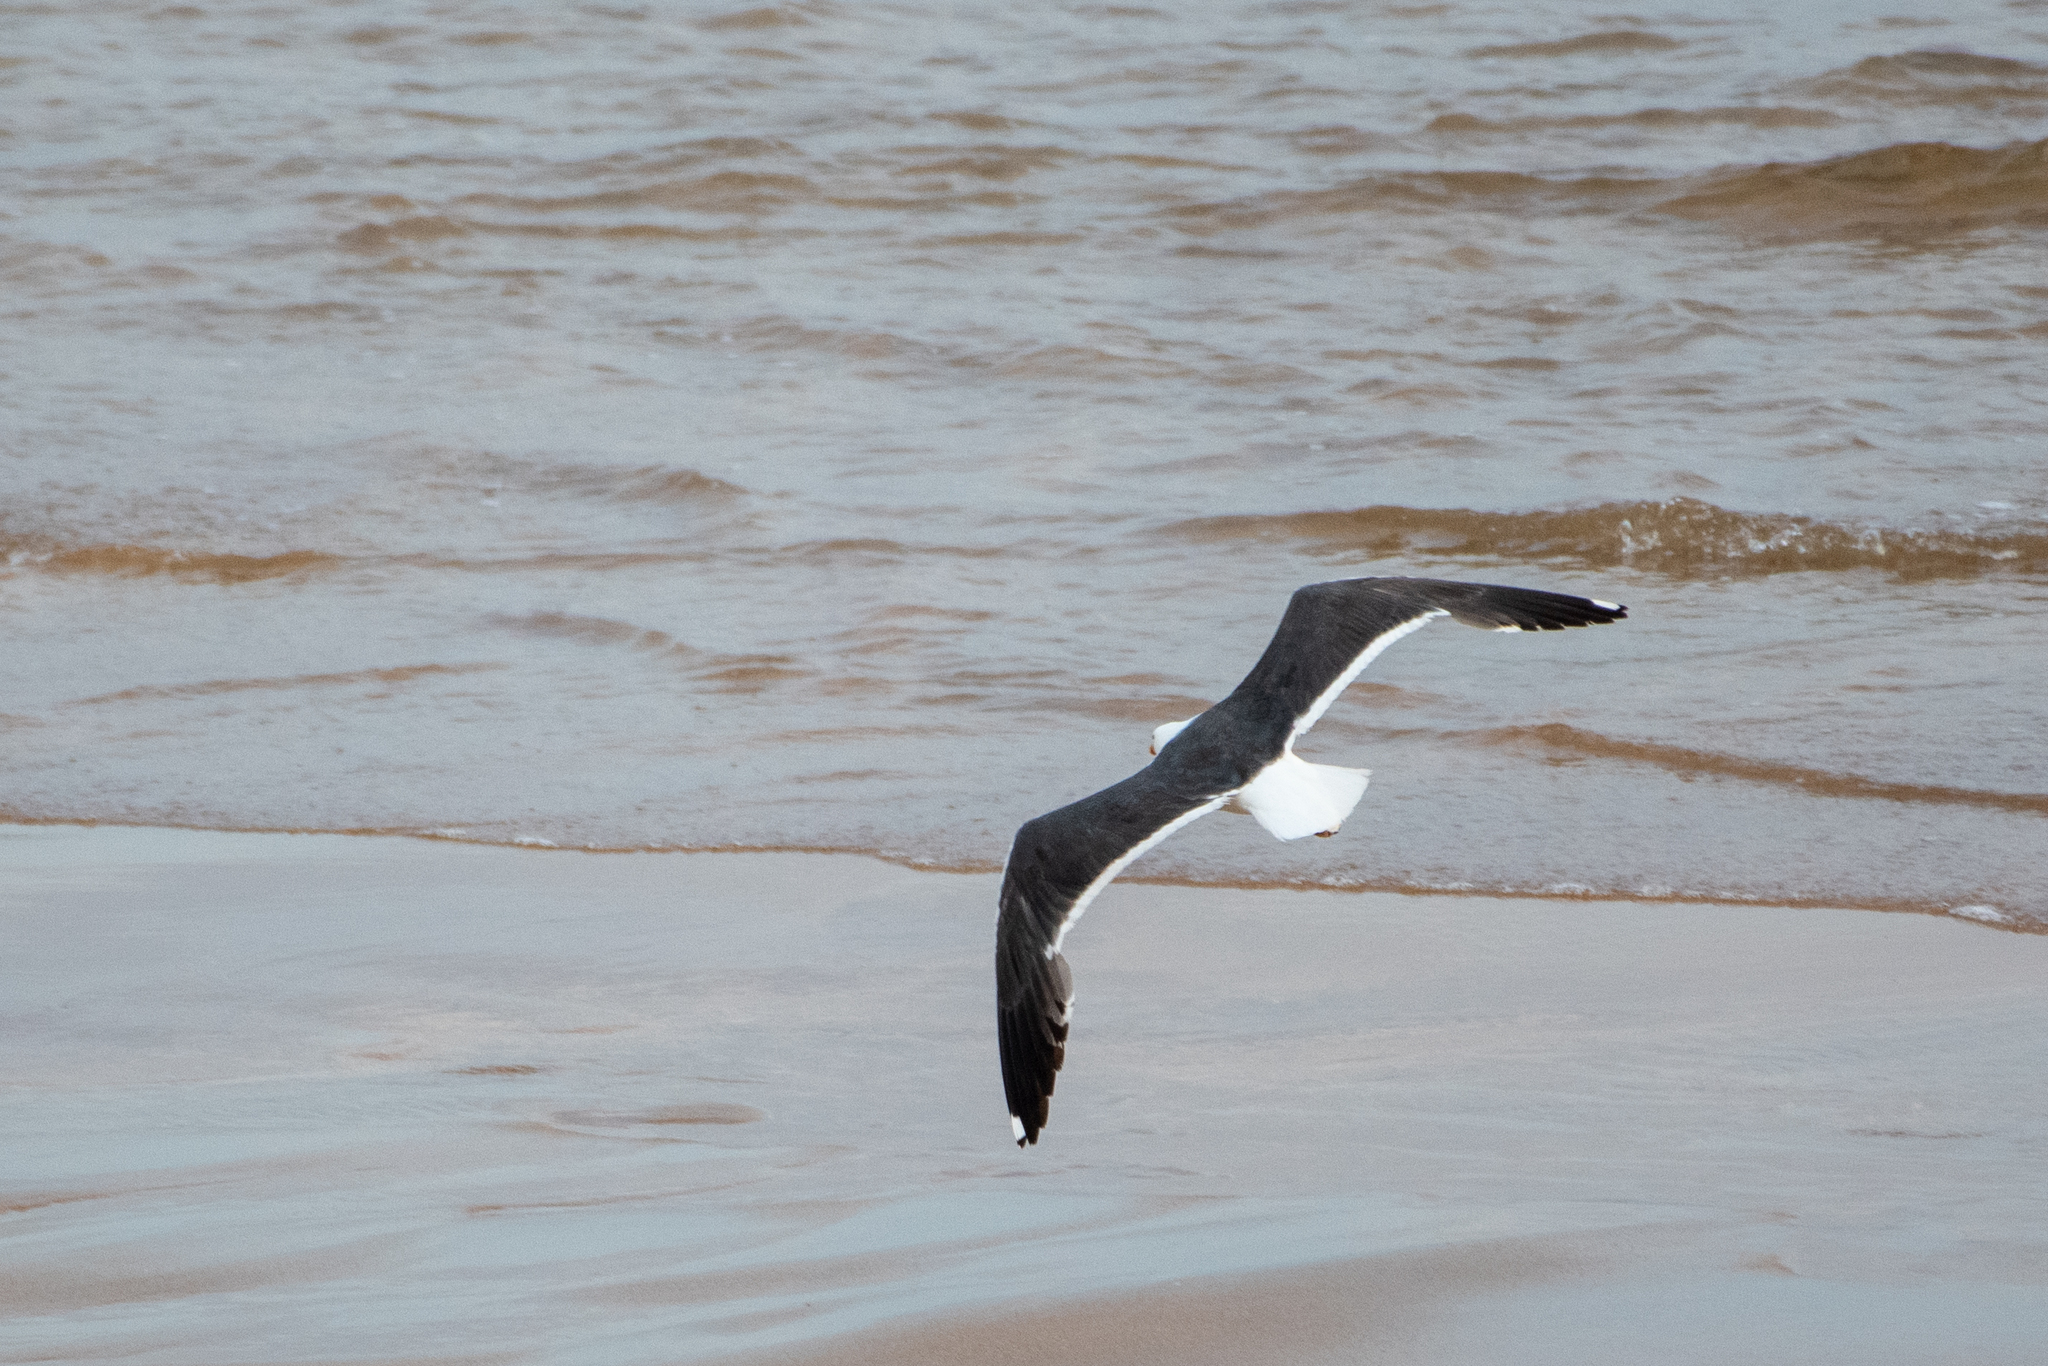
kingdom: Animalia
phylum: Chordata
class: Aves
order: Charadriiformes
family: Laridae
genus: Larus
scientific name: Larus fuscus
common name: Lesser black-backed gull
